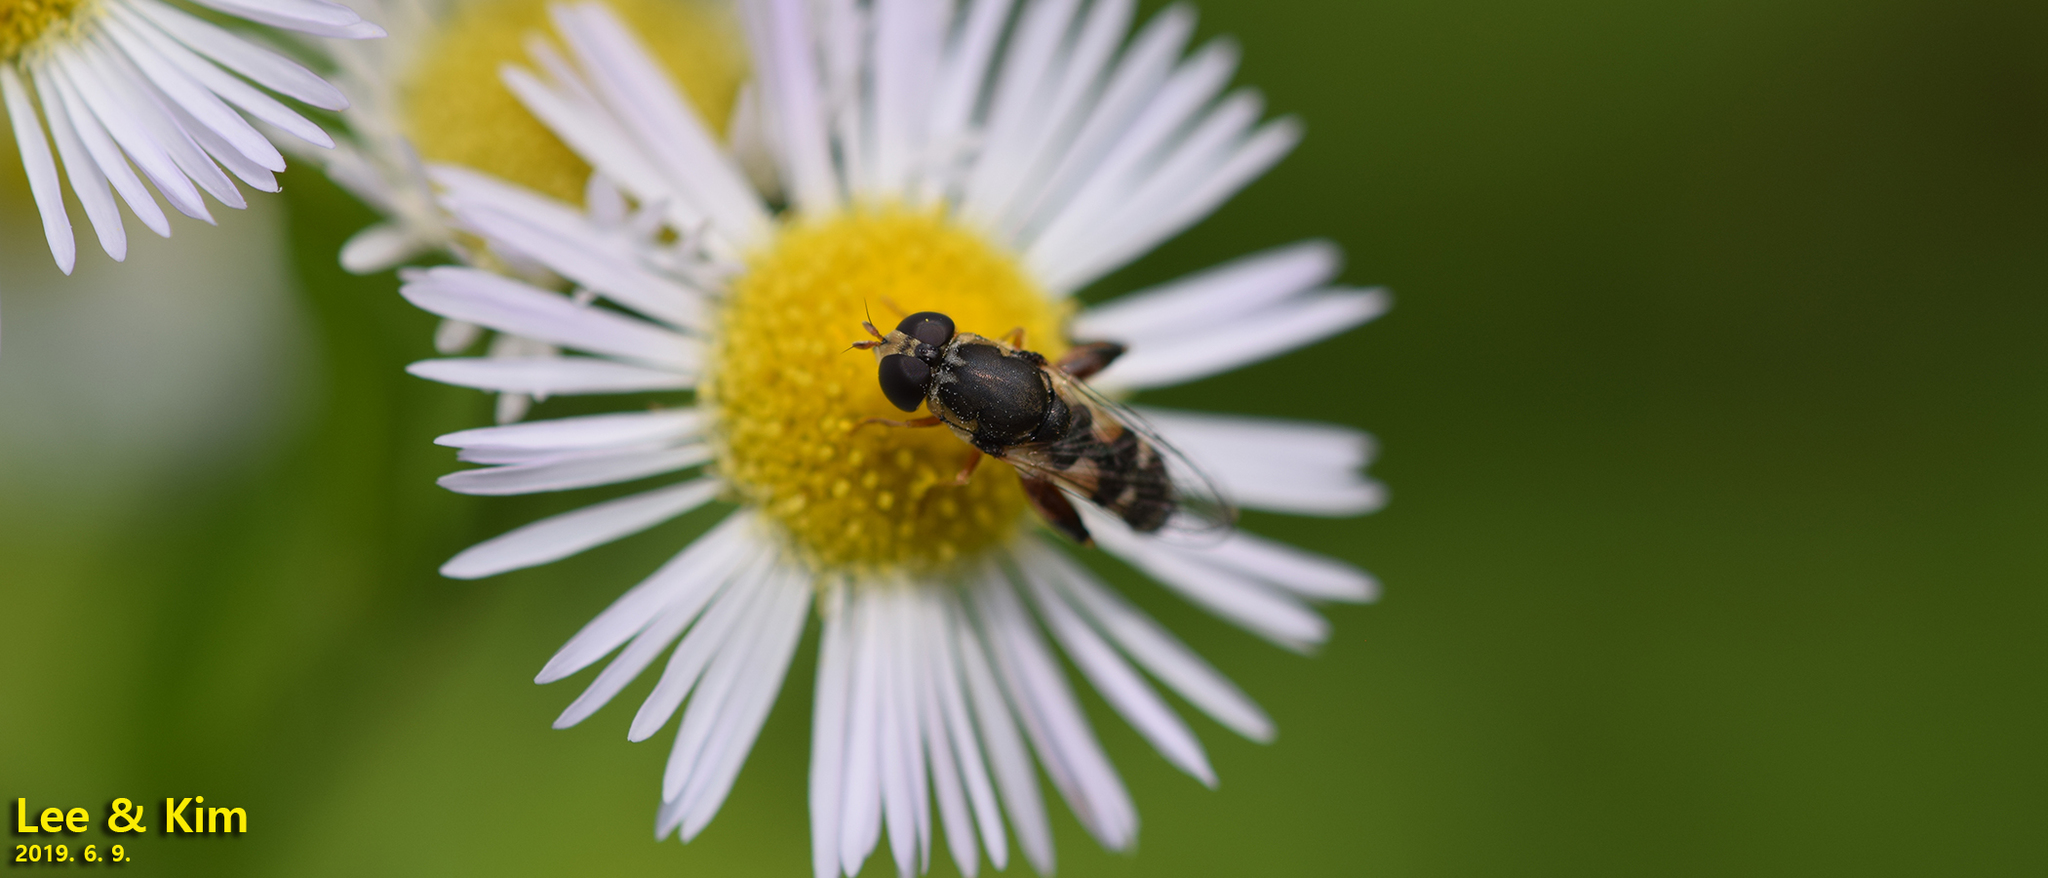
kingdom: Animalia
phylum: Arthropoda
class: Insecta
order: Diptera
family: Syrphidae
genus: Syritta
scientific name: Syritta pipiens
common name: Hover fly
